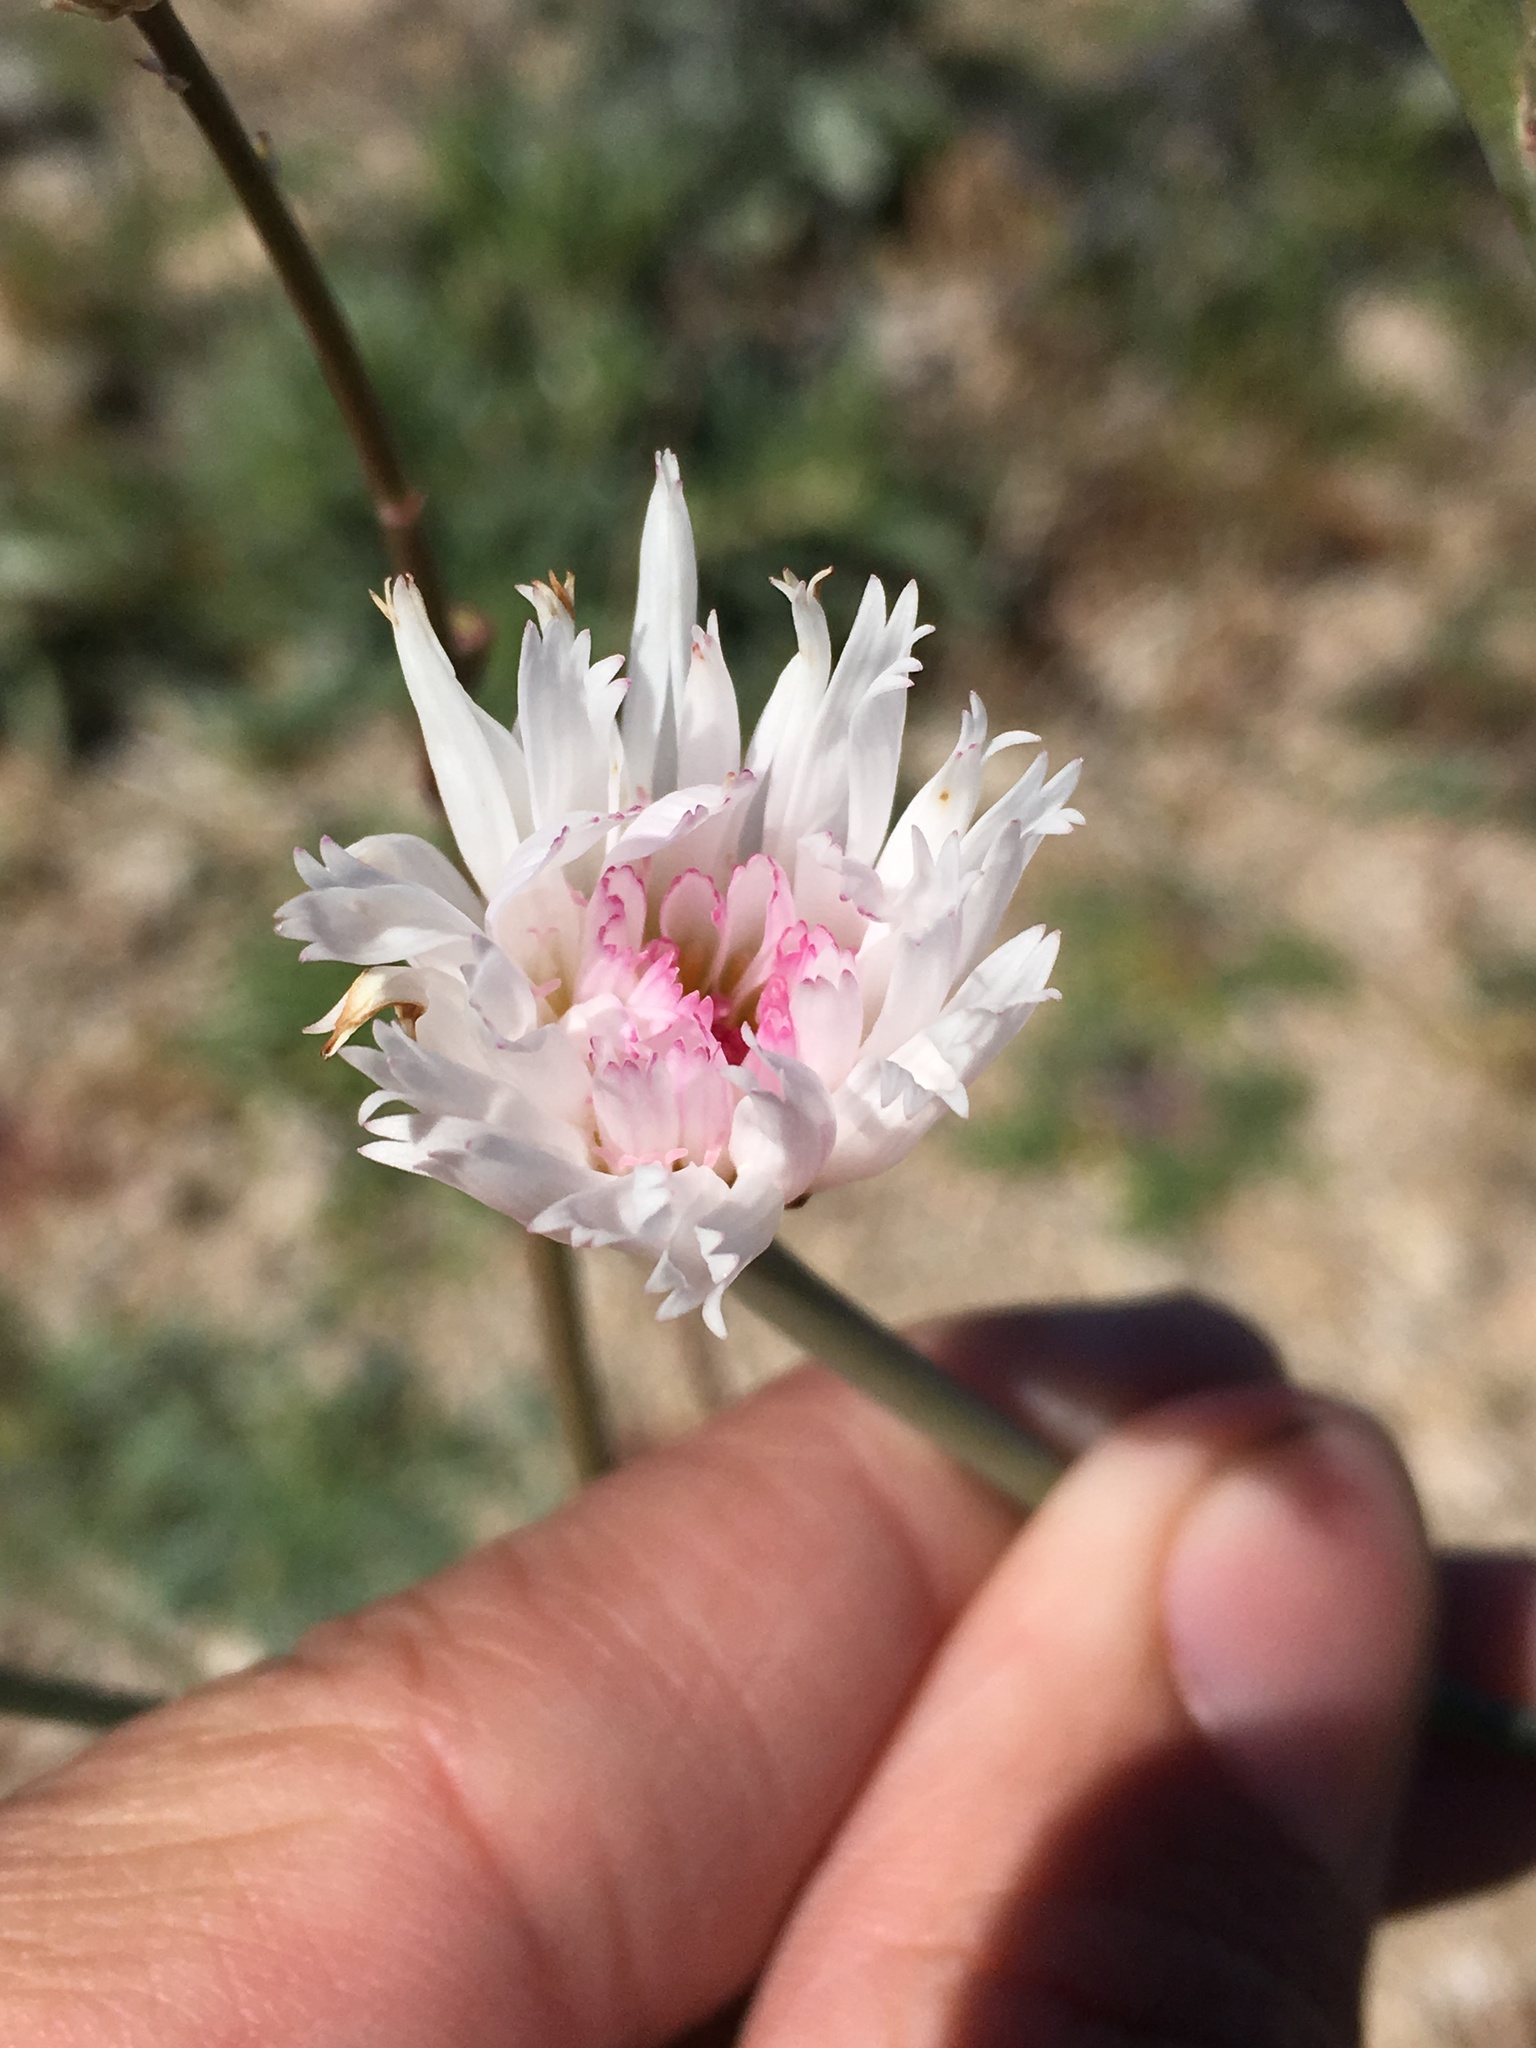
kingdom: Plantae
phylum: Tracheophyta
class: Magnoliopsida
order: Asterales
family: Asteraceae
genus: Atrichoseris
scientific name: Atrichoseris platyphylla
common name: Tobaccoweed
